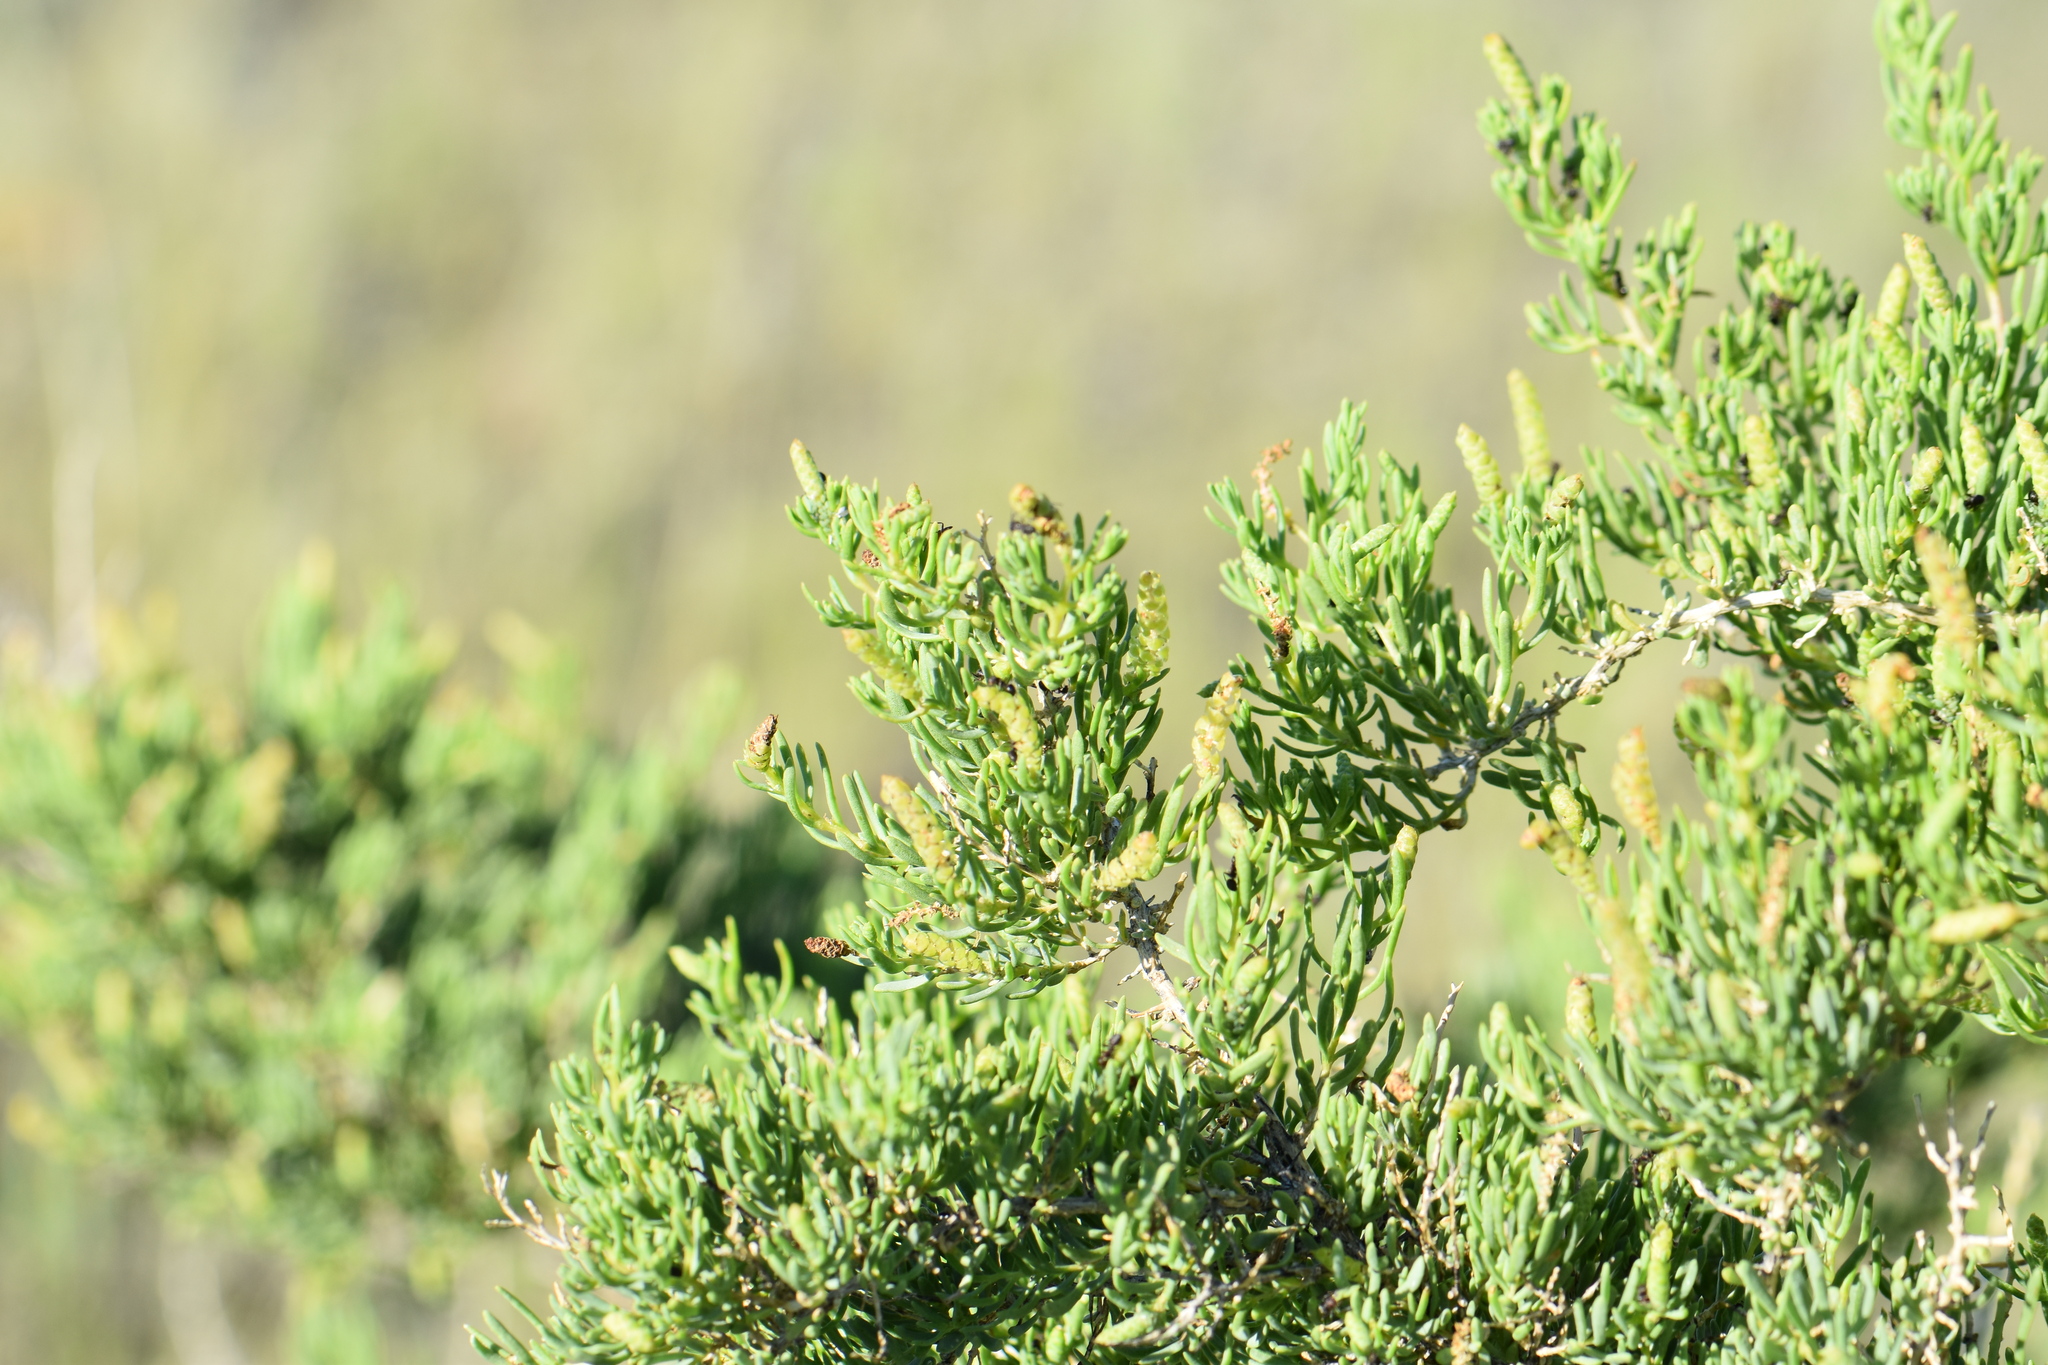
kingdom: Plantae
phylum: Tracheophyta
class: Magnoliopsida
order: Caryophyllales
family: Sarcobataceae
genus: Sarcobatus
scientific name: Sarcobatus vermiculatus
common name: Greasewood
